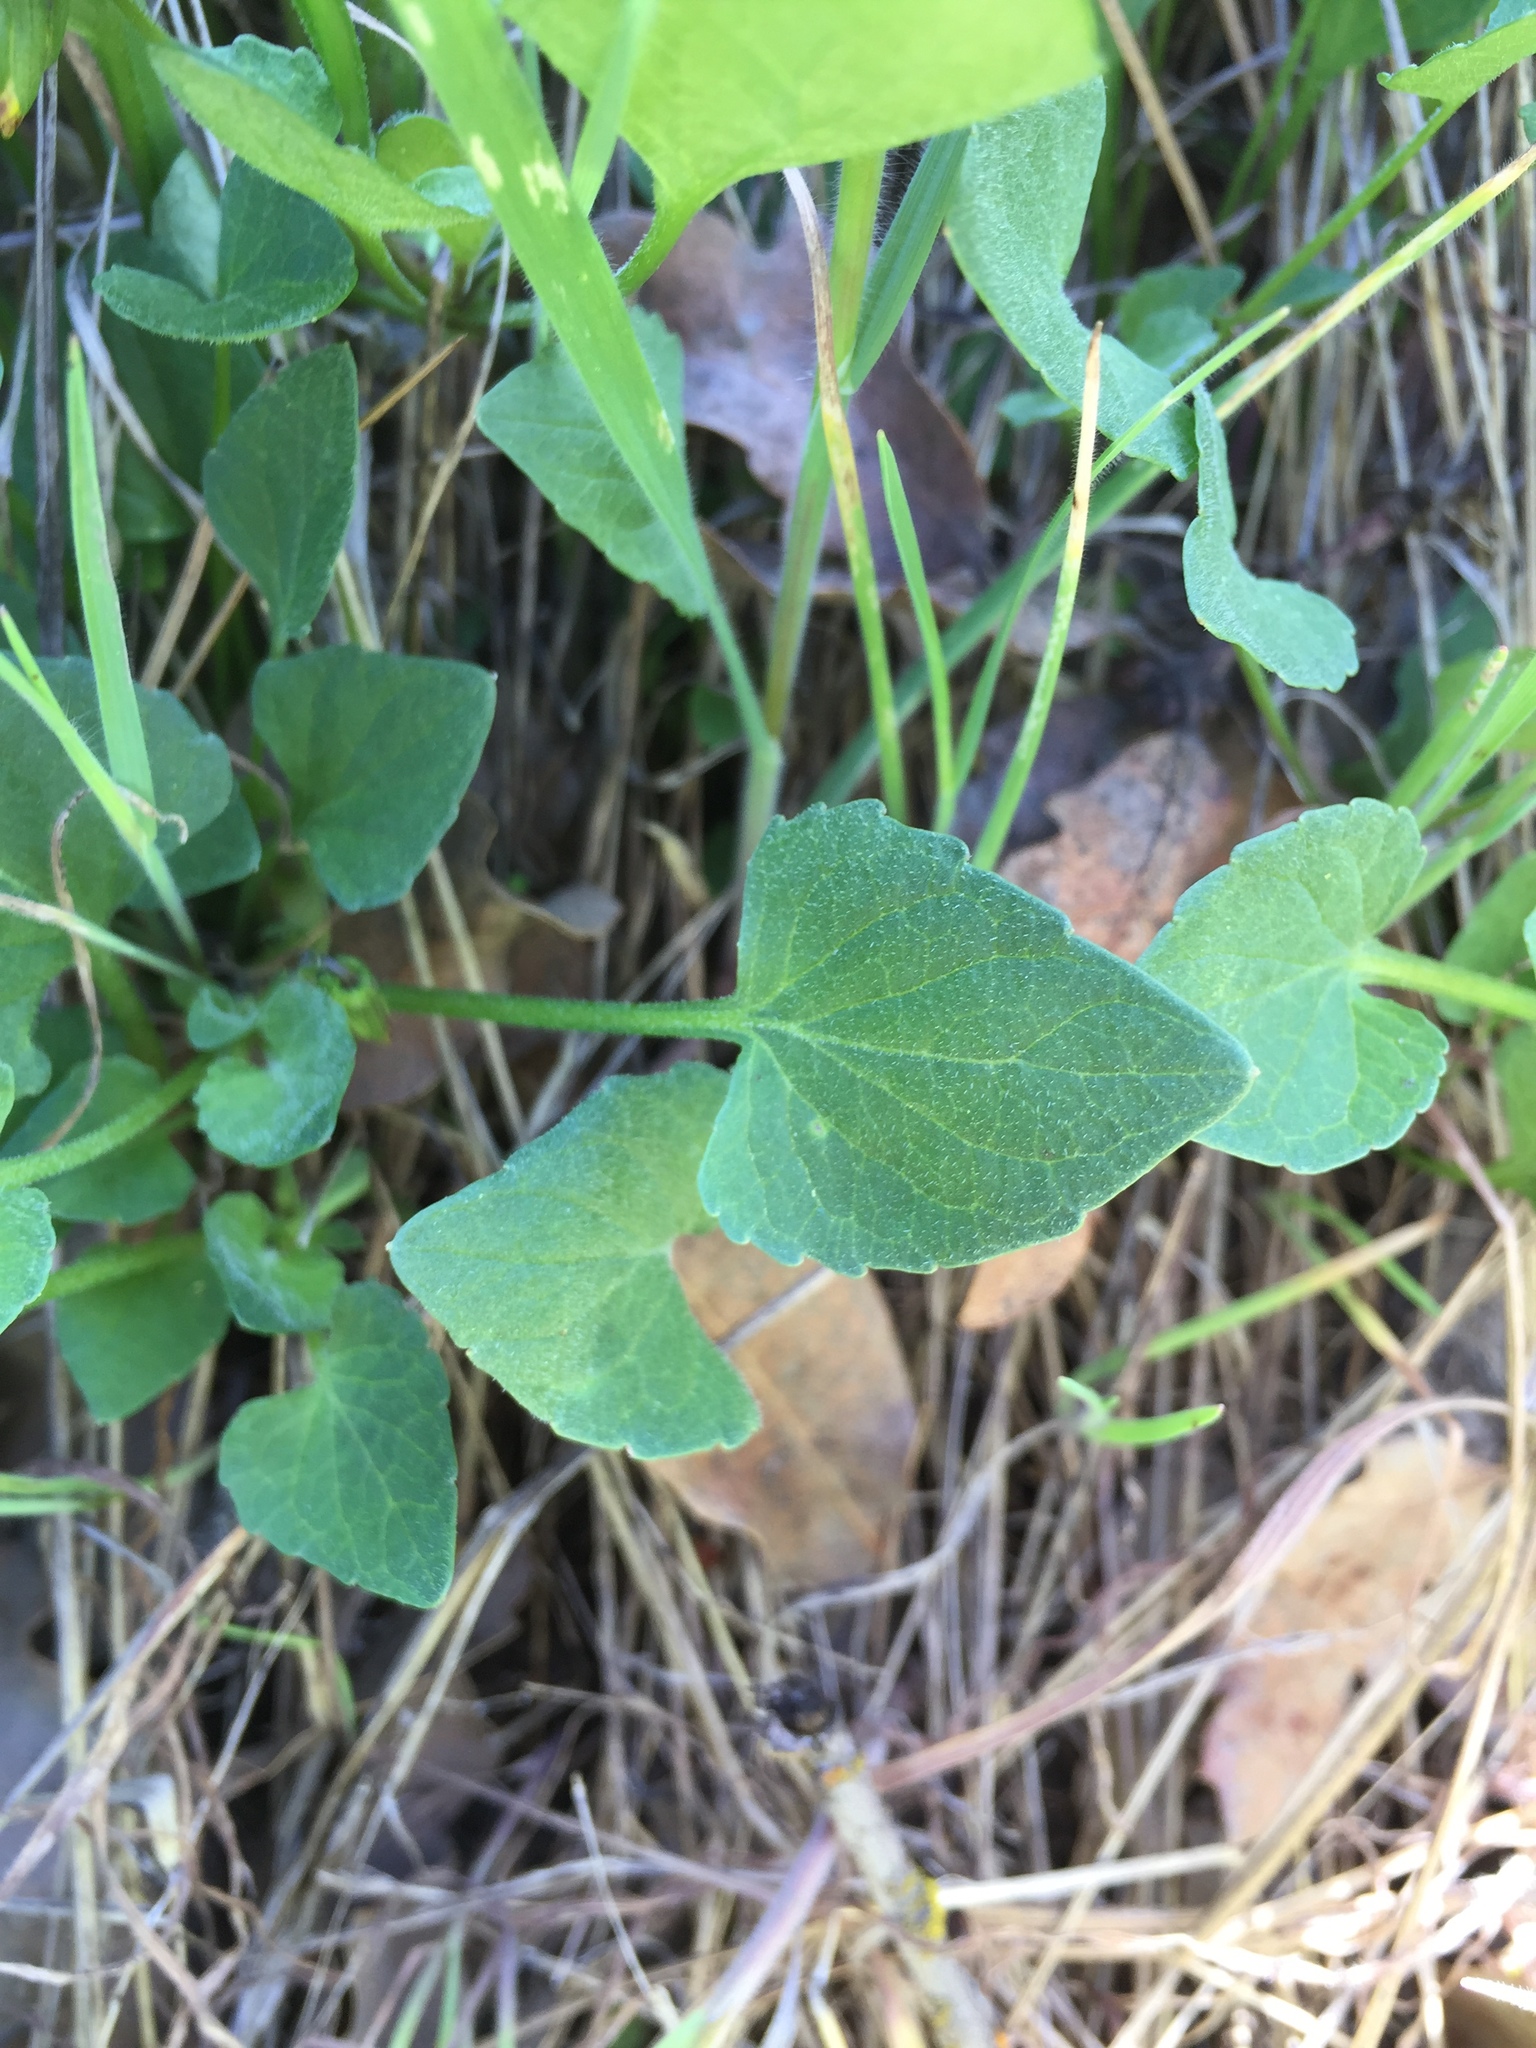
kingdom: Plantae
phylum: Tracheophyta
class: Magnoliopsida
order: Malpighiales
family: Violaceae
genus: Viola
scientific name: Viola pedunculata
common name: California golden violet
